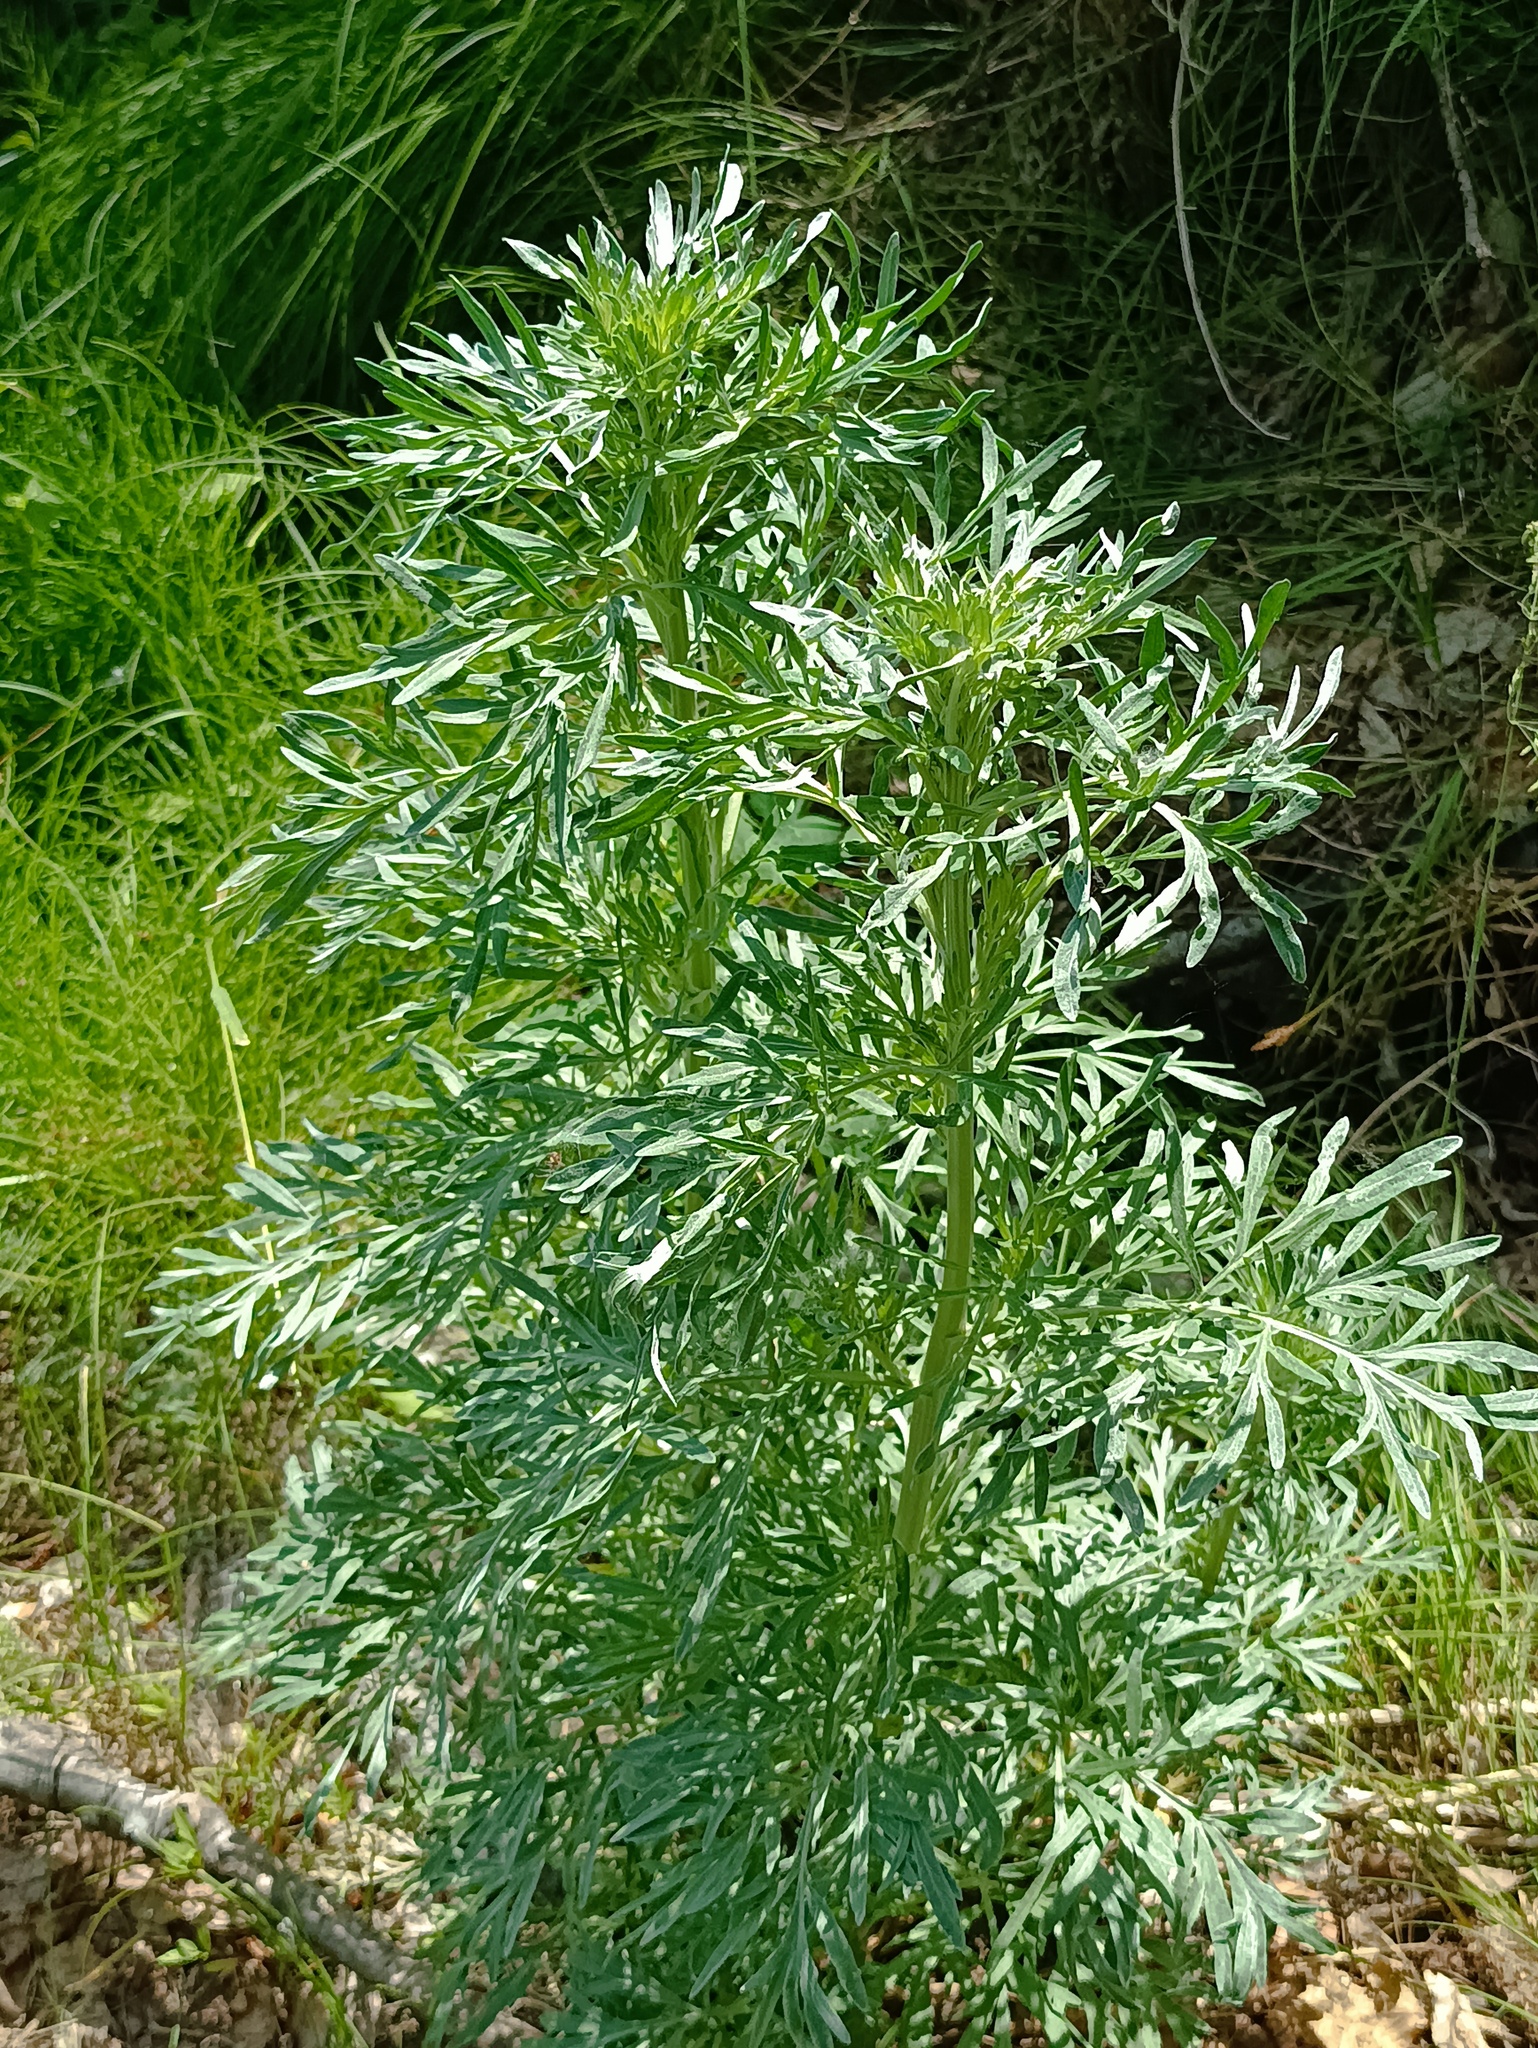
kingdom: Plantae
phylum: Tracheophyta
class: Magnoliopsida
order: Asterales
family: Asteraceae
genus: Artemisia
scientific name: Artemisia absinthium
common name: Wormwood
